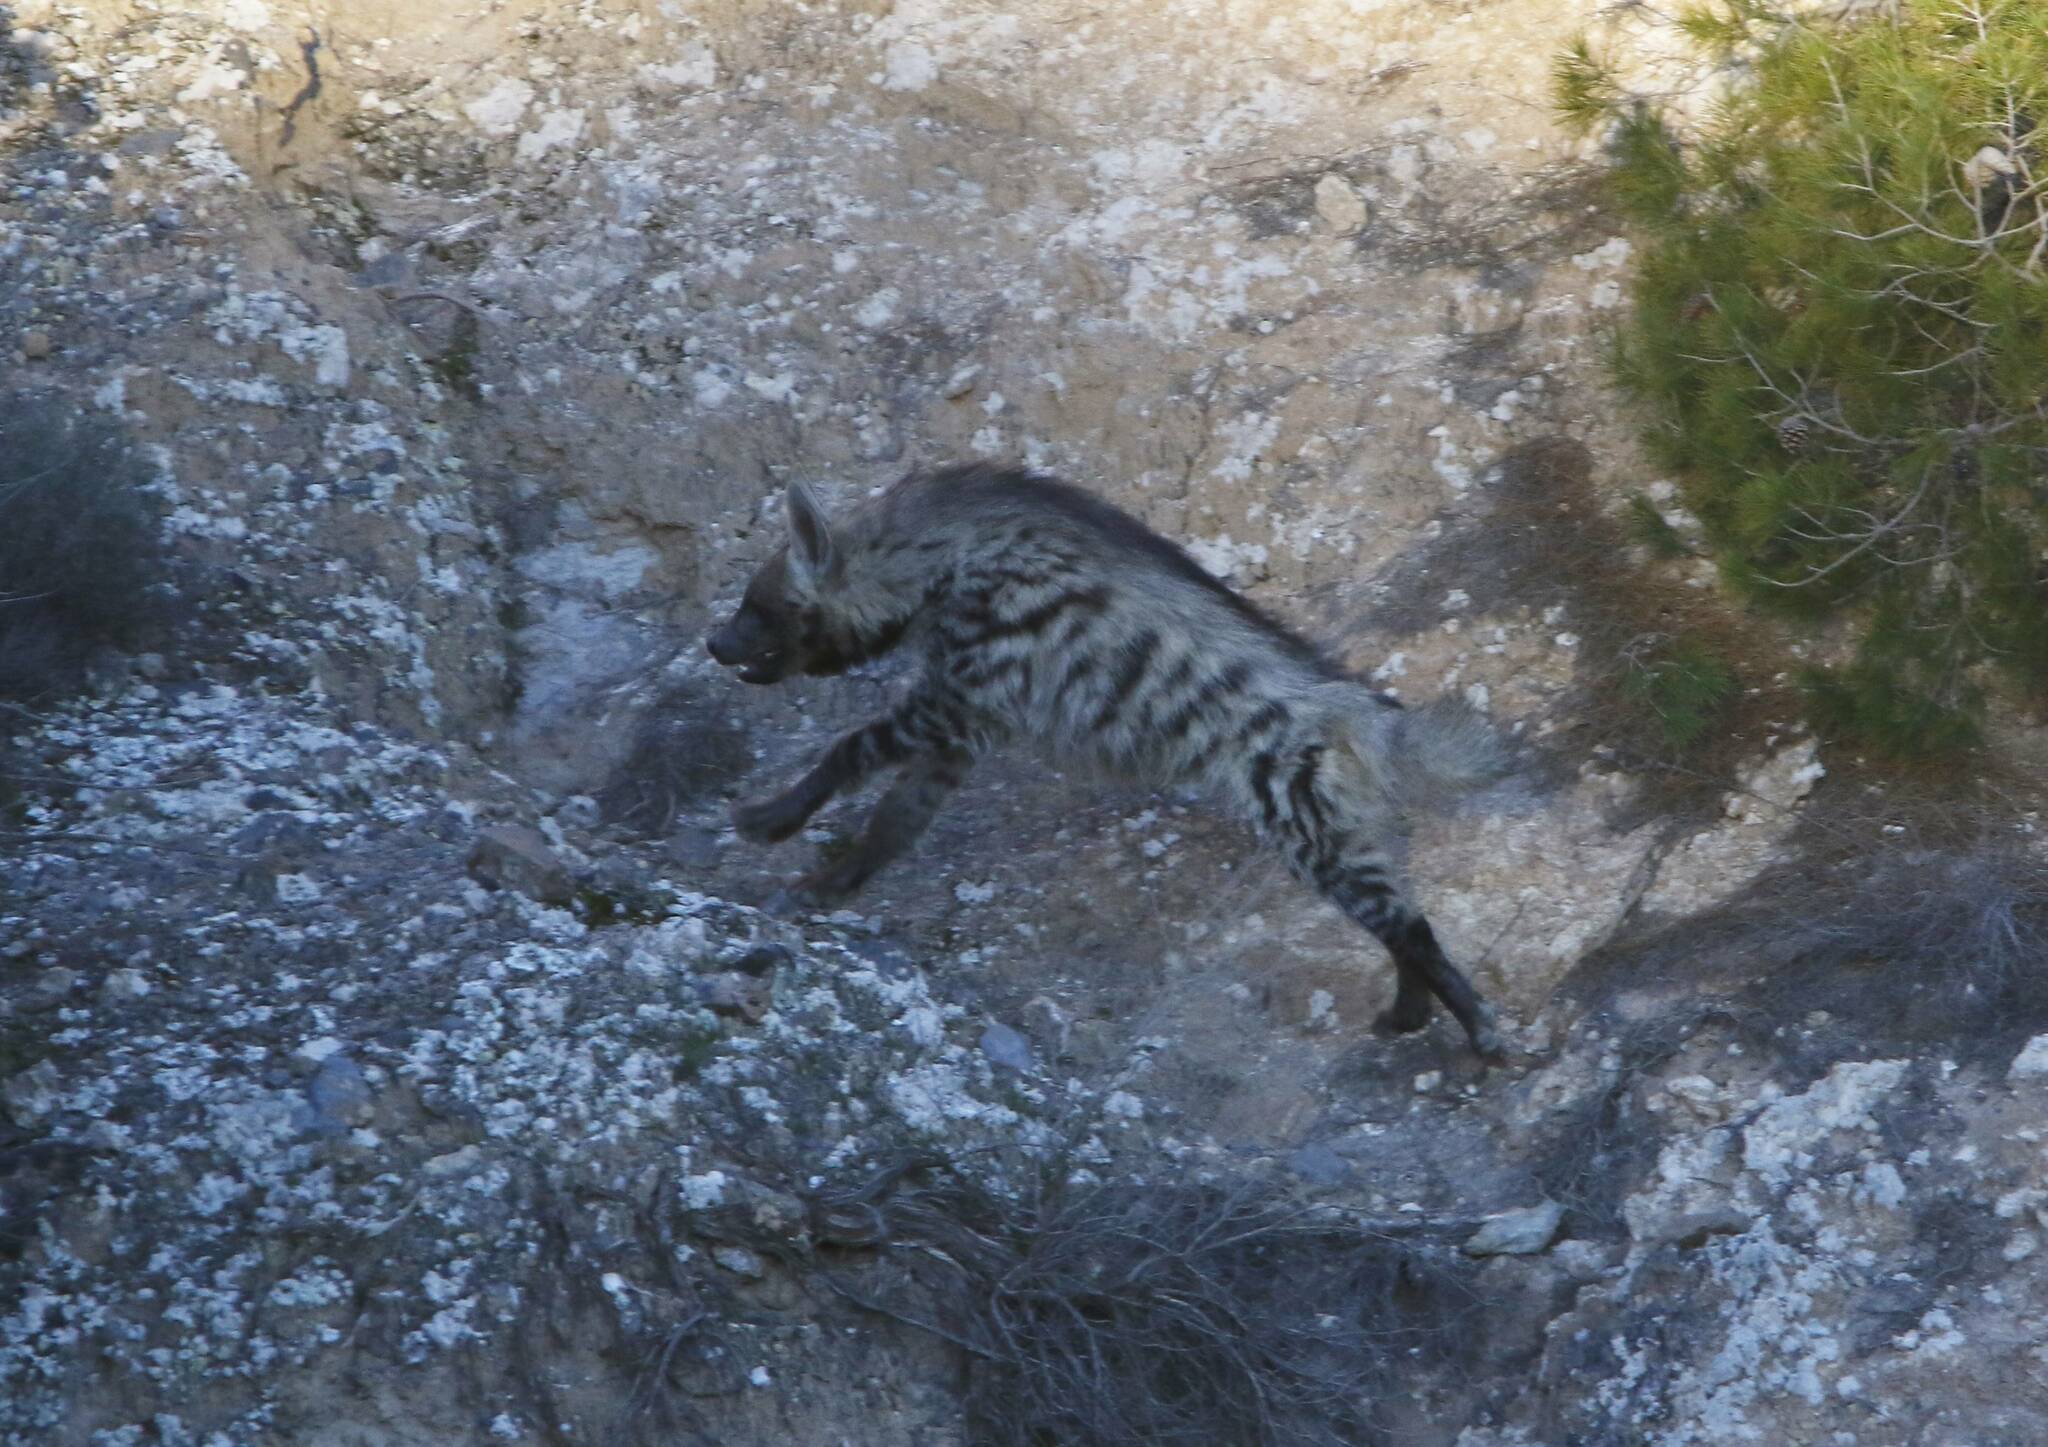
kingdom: Animalia
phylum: Chordata
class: Mammalia
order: Carnivora
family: Hyaenidae
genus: Hyaena
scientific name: Hyaena hyaena
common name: Striped hyaena
